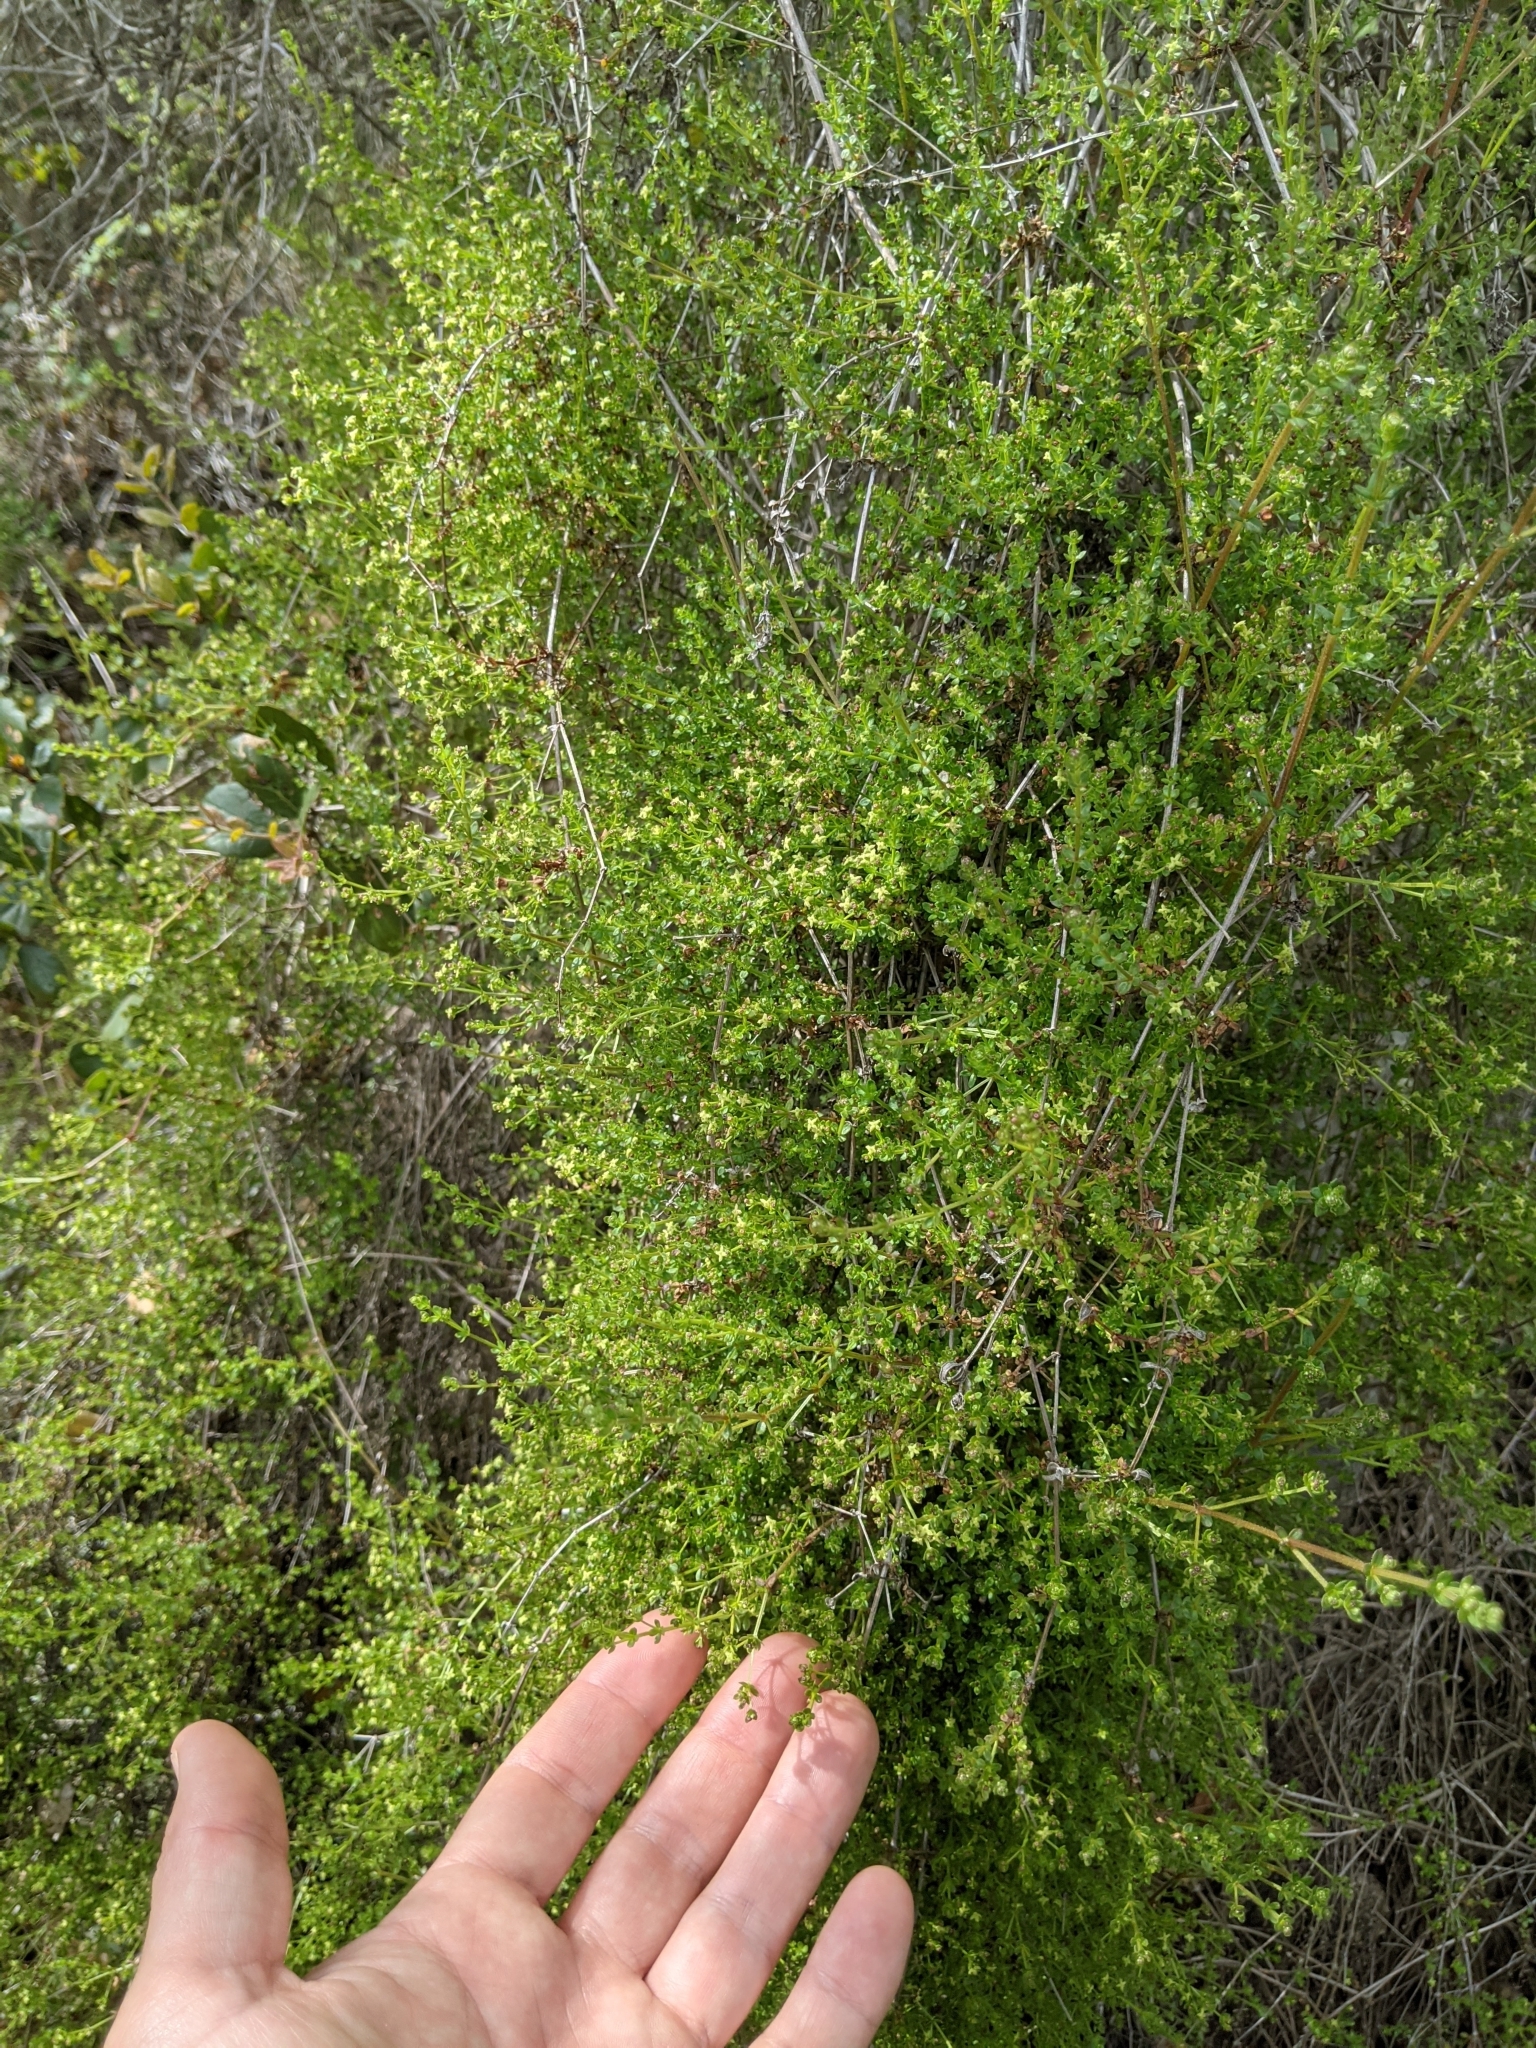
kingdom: Plantae
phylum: Tracheophyta
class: Magnoliopsida
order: Gentianales
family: Rubiaceae
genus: Galium
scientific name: Galium porrigens
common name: Climbing bedstraw
